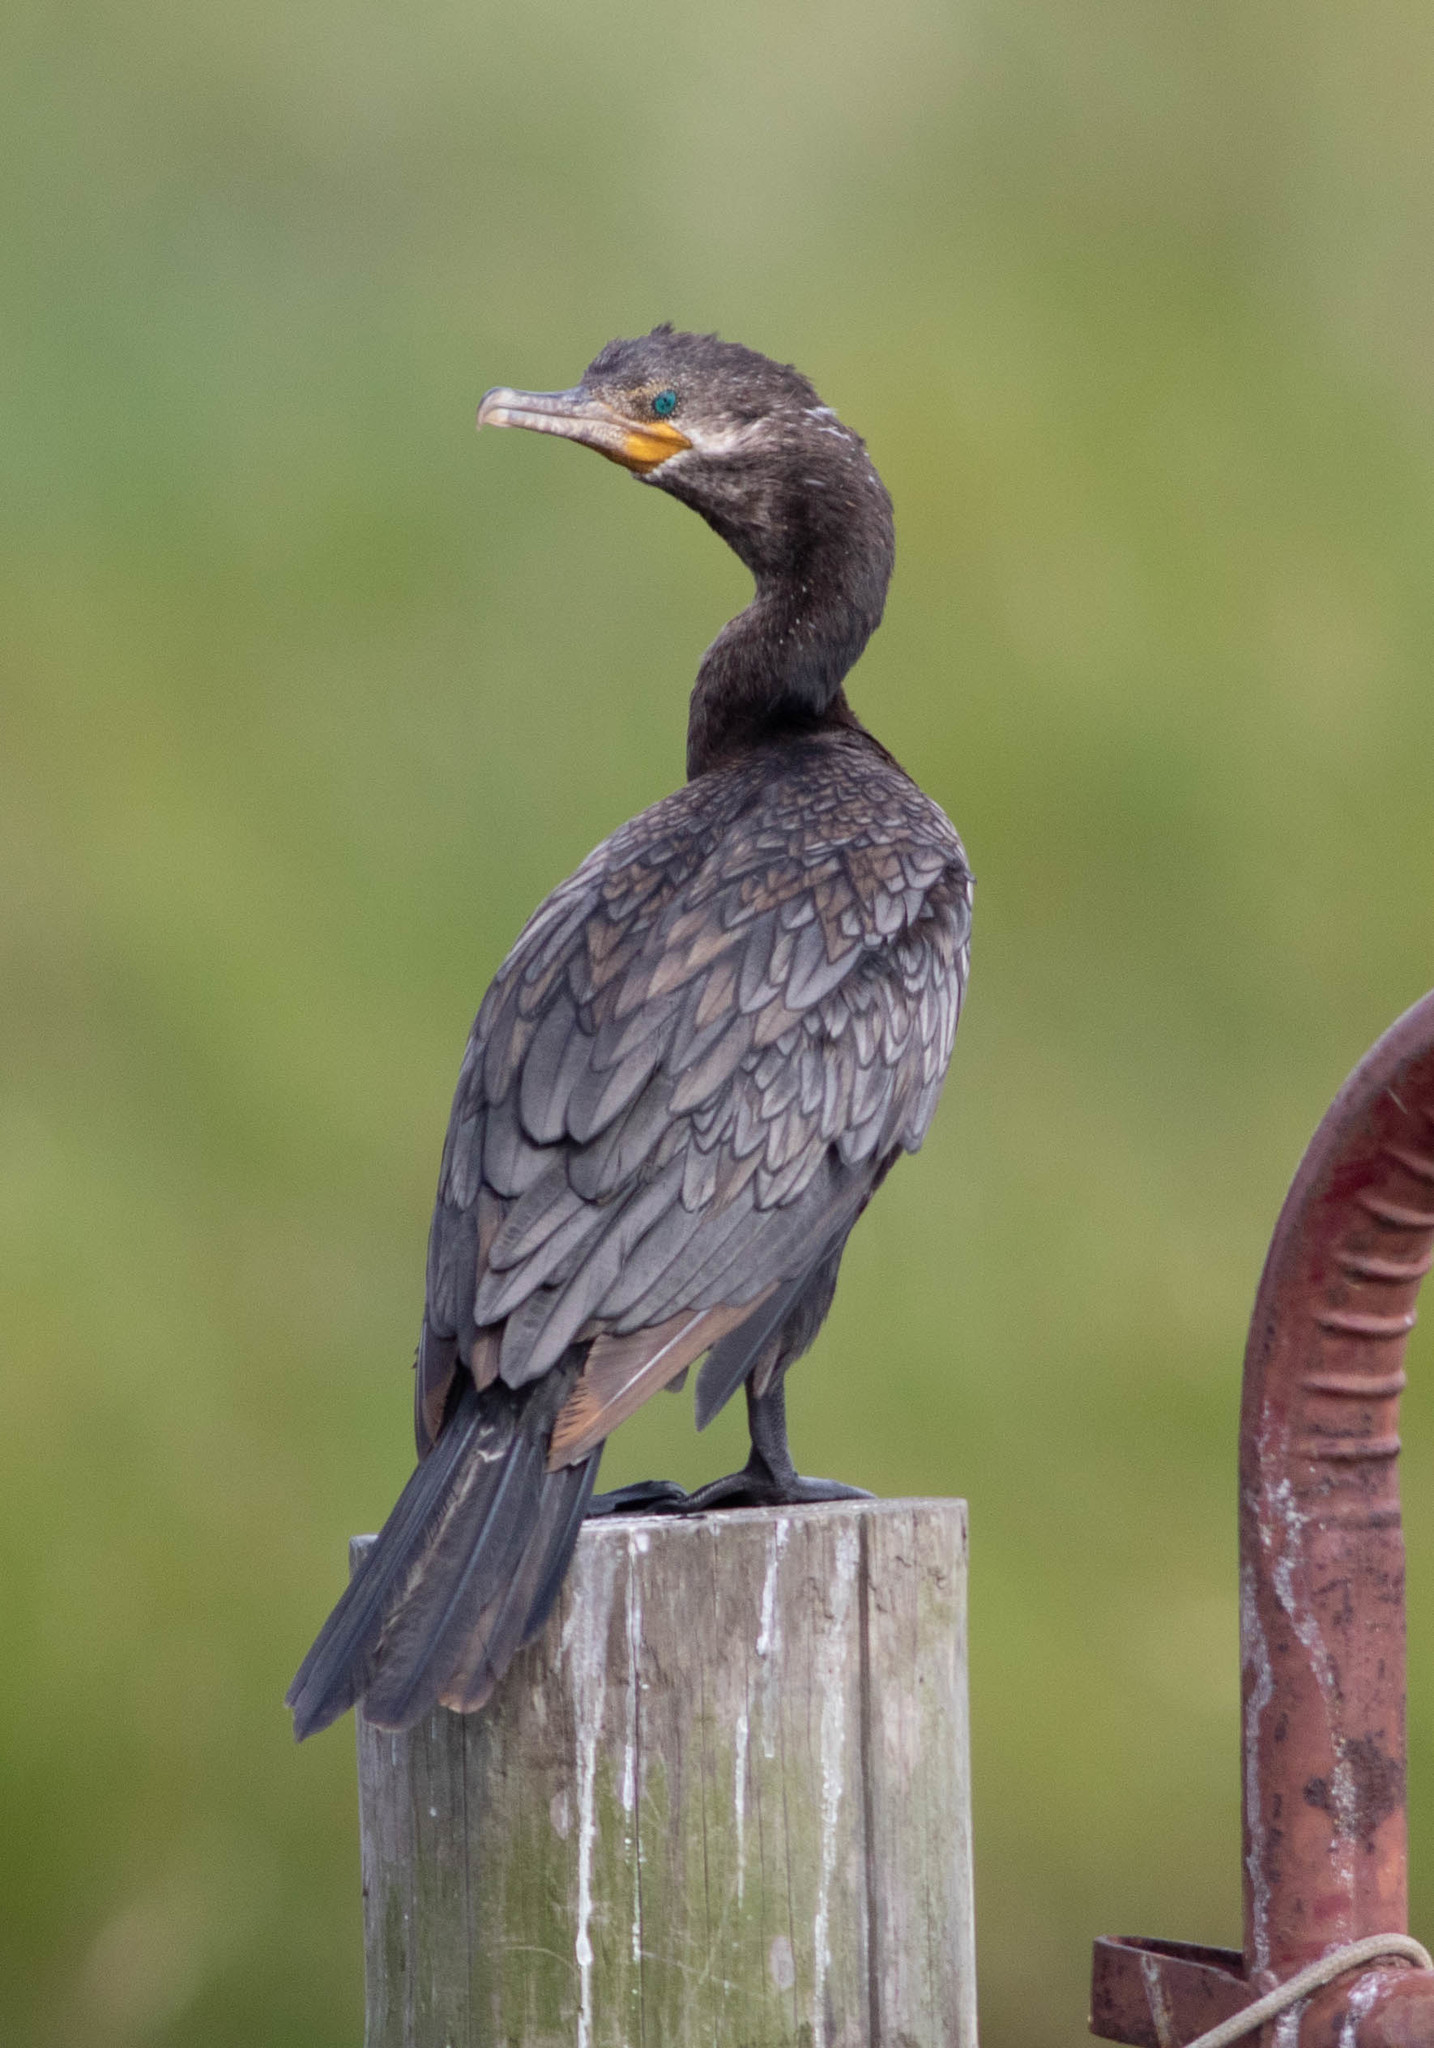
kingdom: Animalia
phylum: Chordata
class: Aves
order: Suliformes
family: Phalacrocoracidae
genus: Phalacrocorax
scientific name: Phalacrocorax brasilianus
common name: Neotropic cormorant
